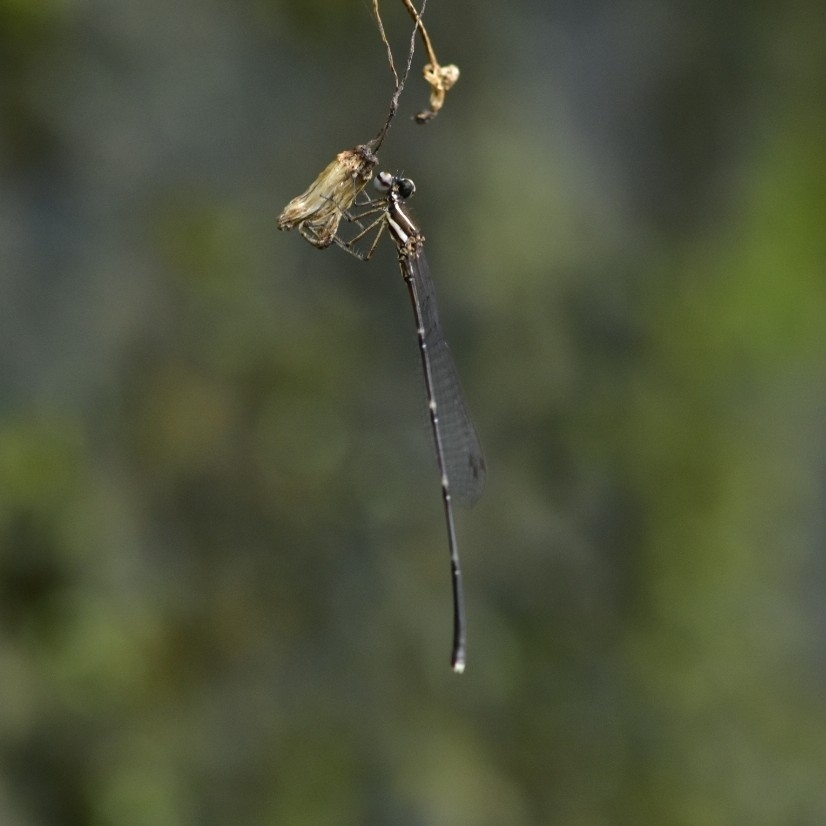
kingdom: Animalia
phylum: Arthropoda
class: Insecta
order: Odonata
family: Platycnemididae
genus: Prodasineura
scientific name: Prodasineura verticalis
